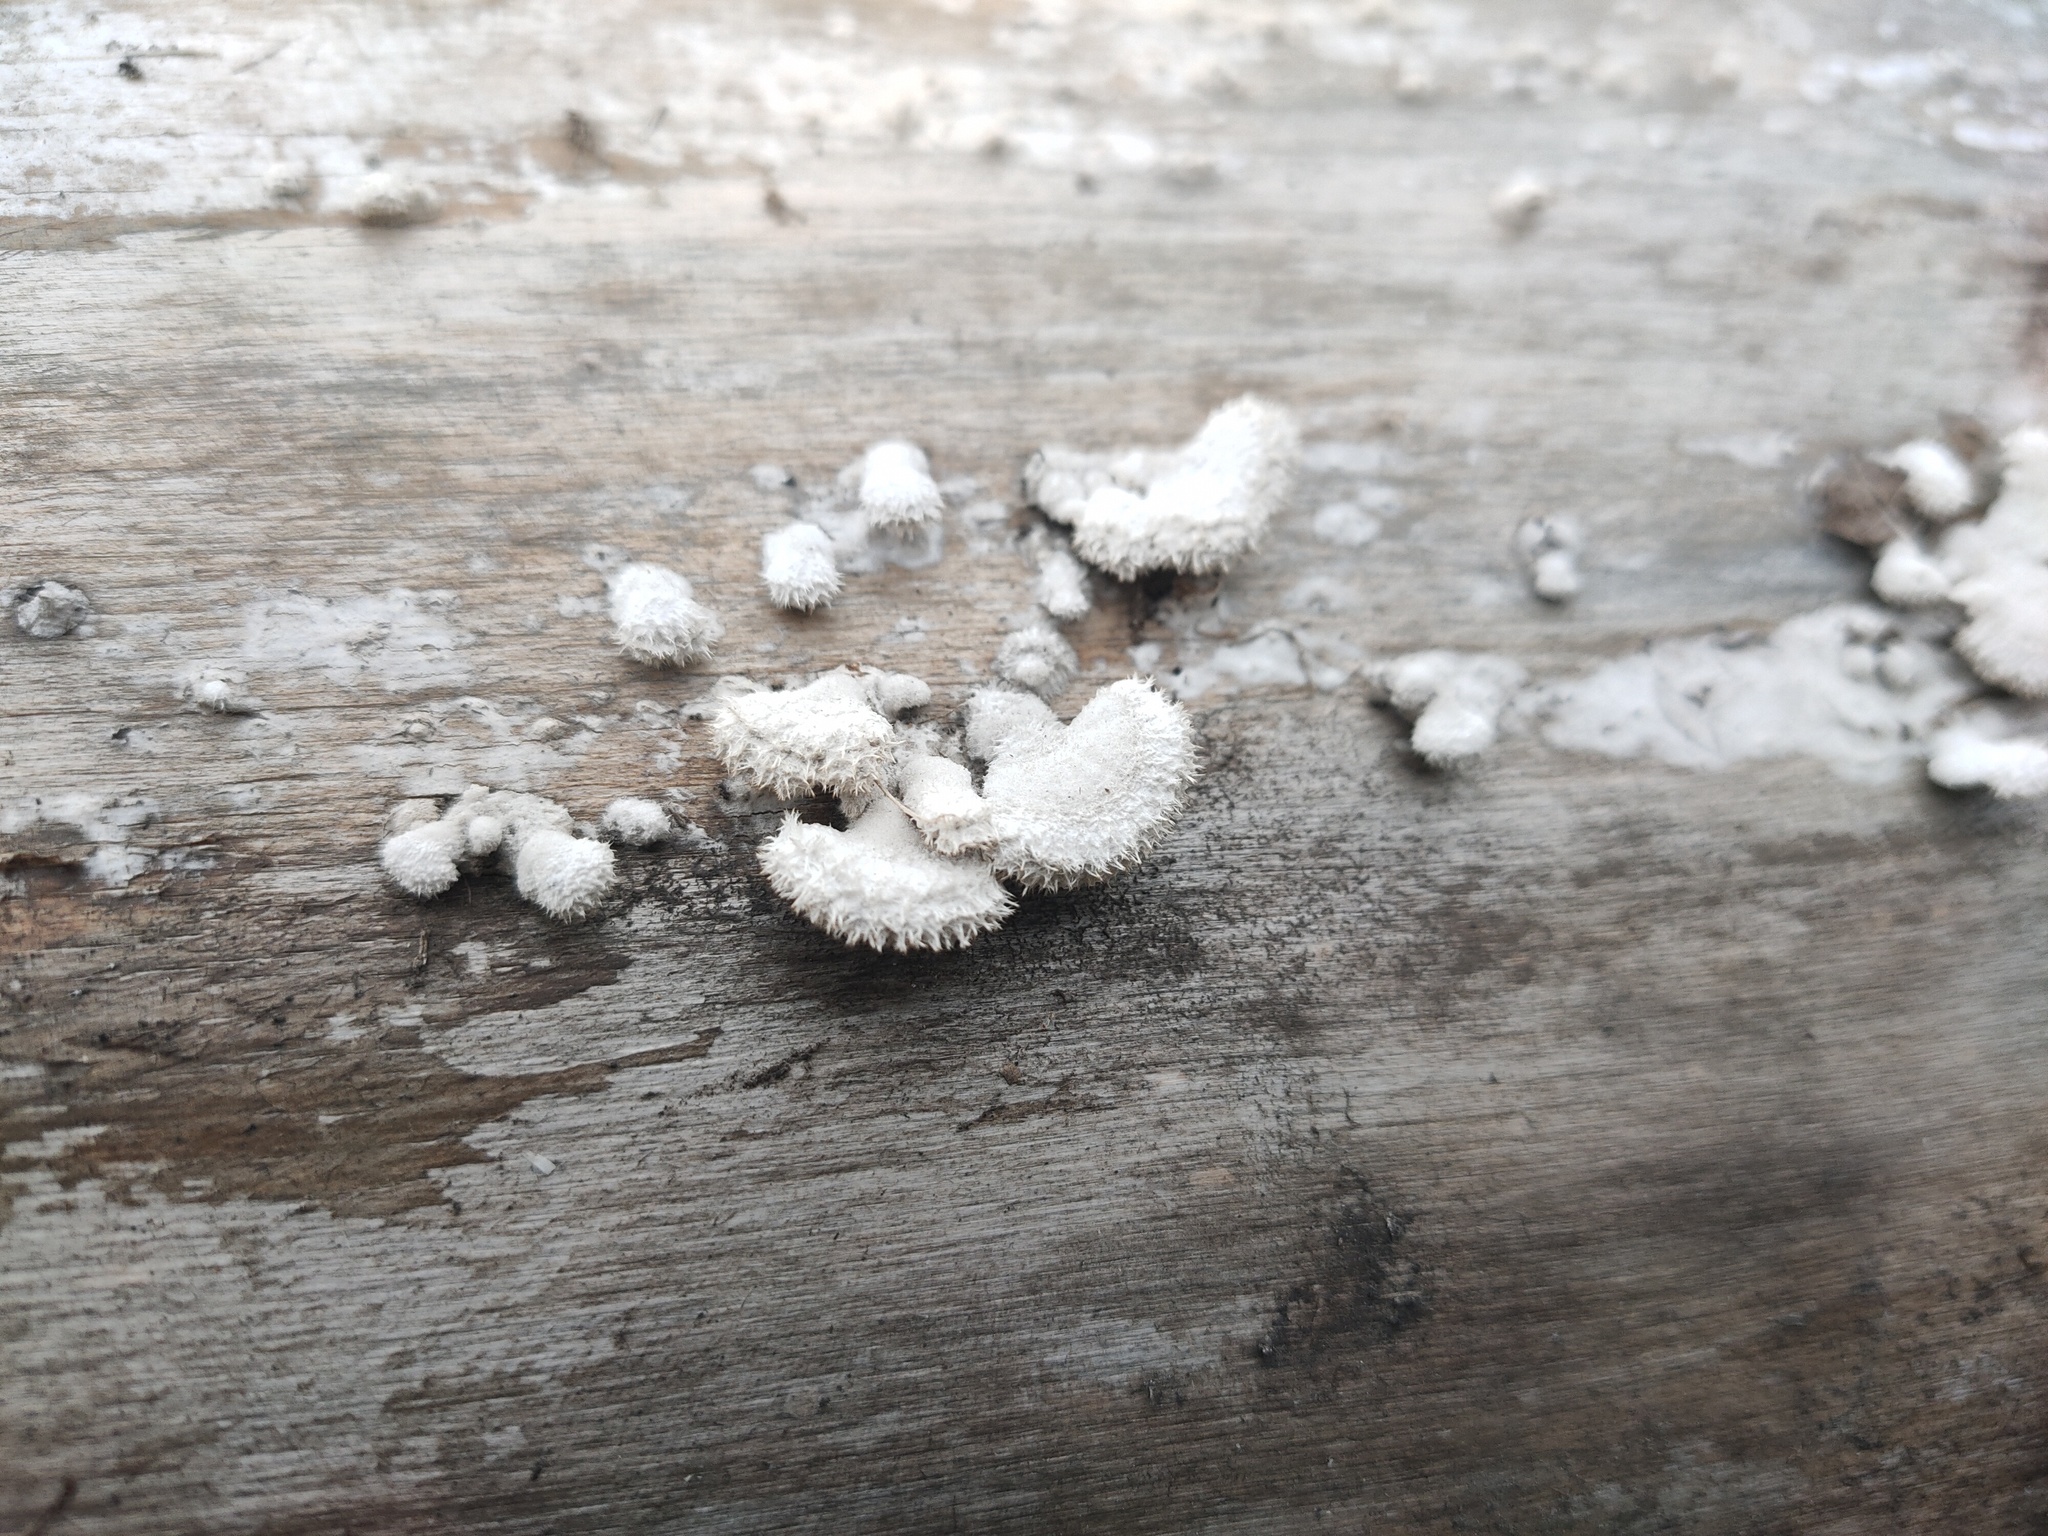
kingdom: Fungi
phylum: Basidiomycota
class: Agaricomycetes
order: Agaricales
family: Schizophyllaceae
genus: Schizophyllum
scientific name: Schizophyllum commune
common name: Common porecrust
